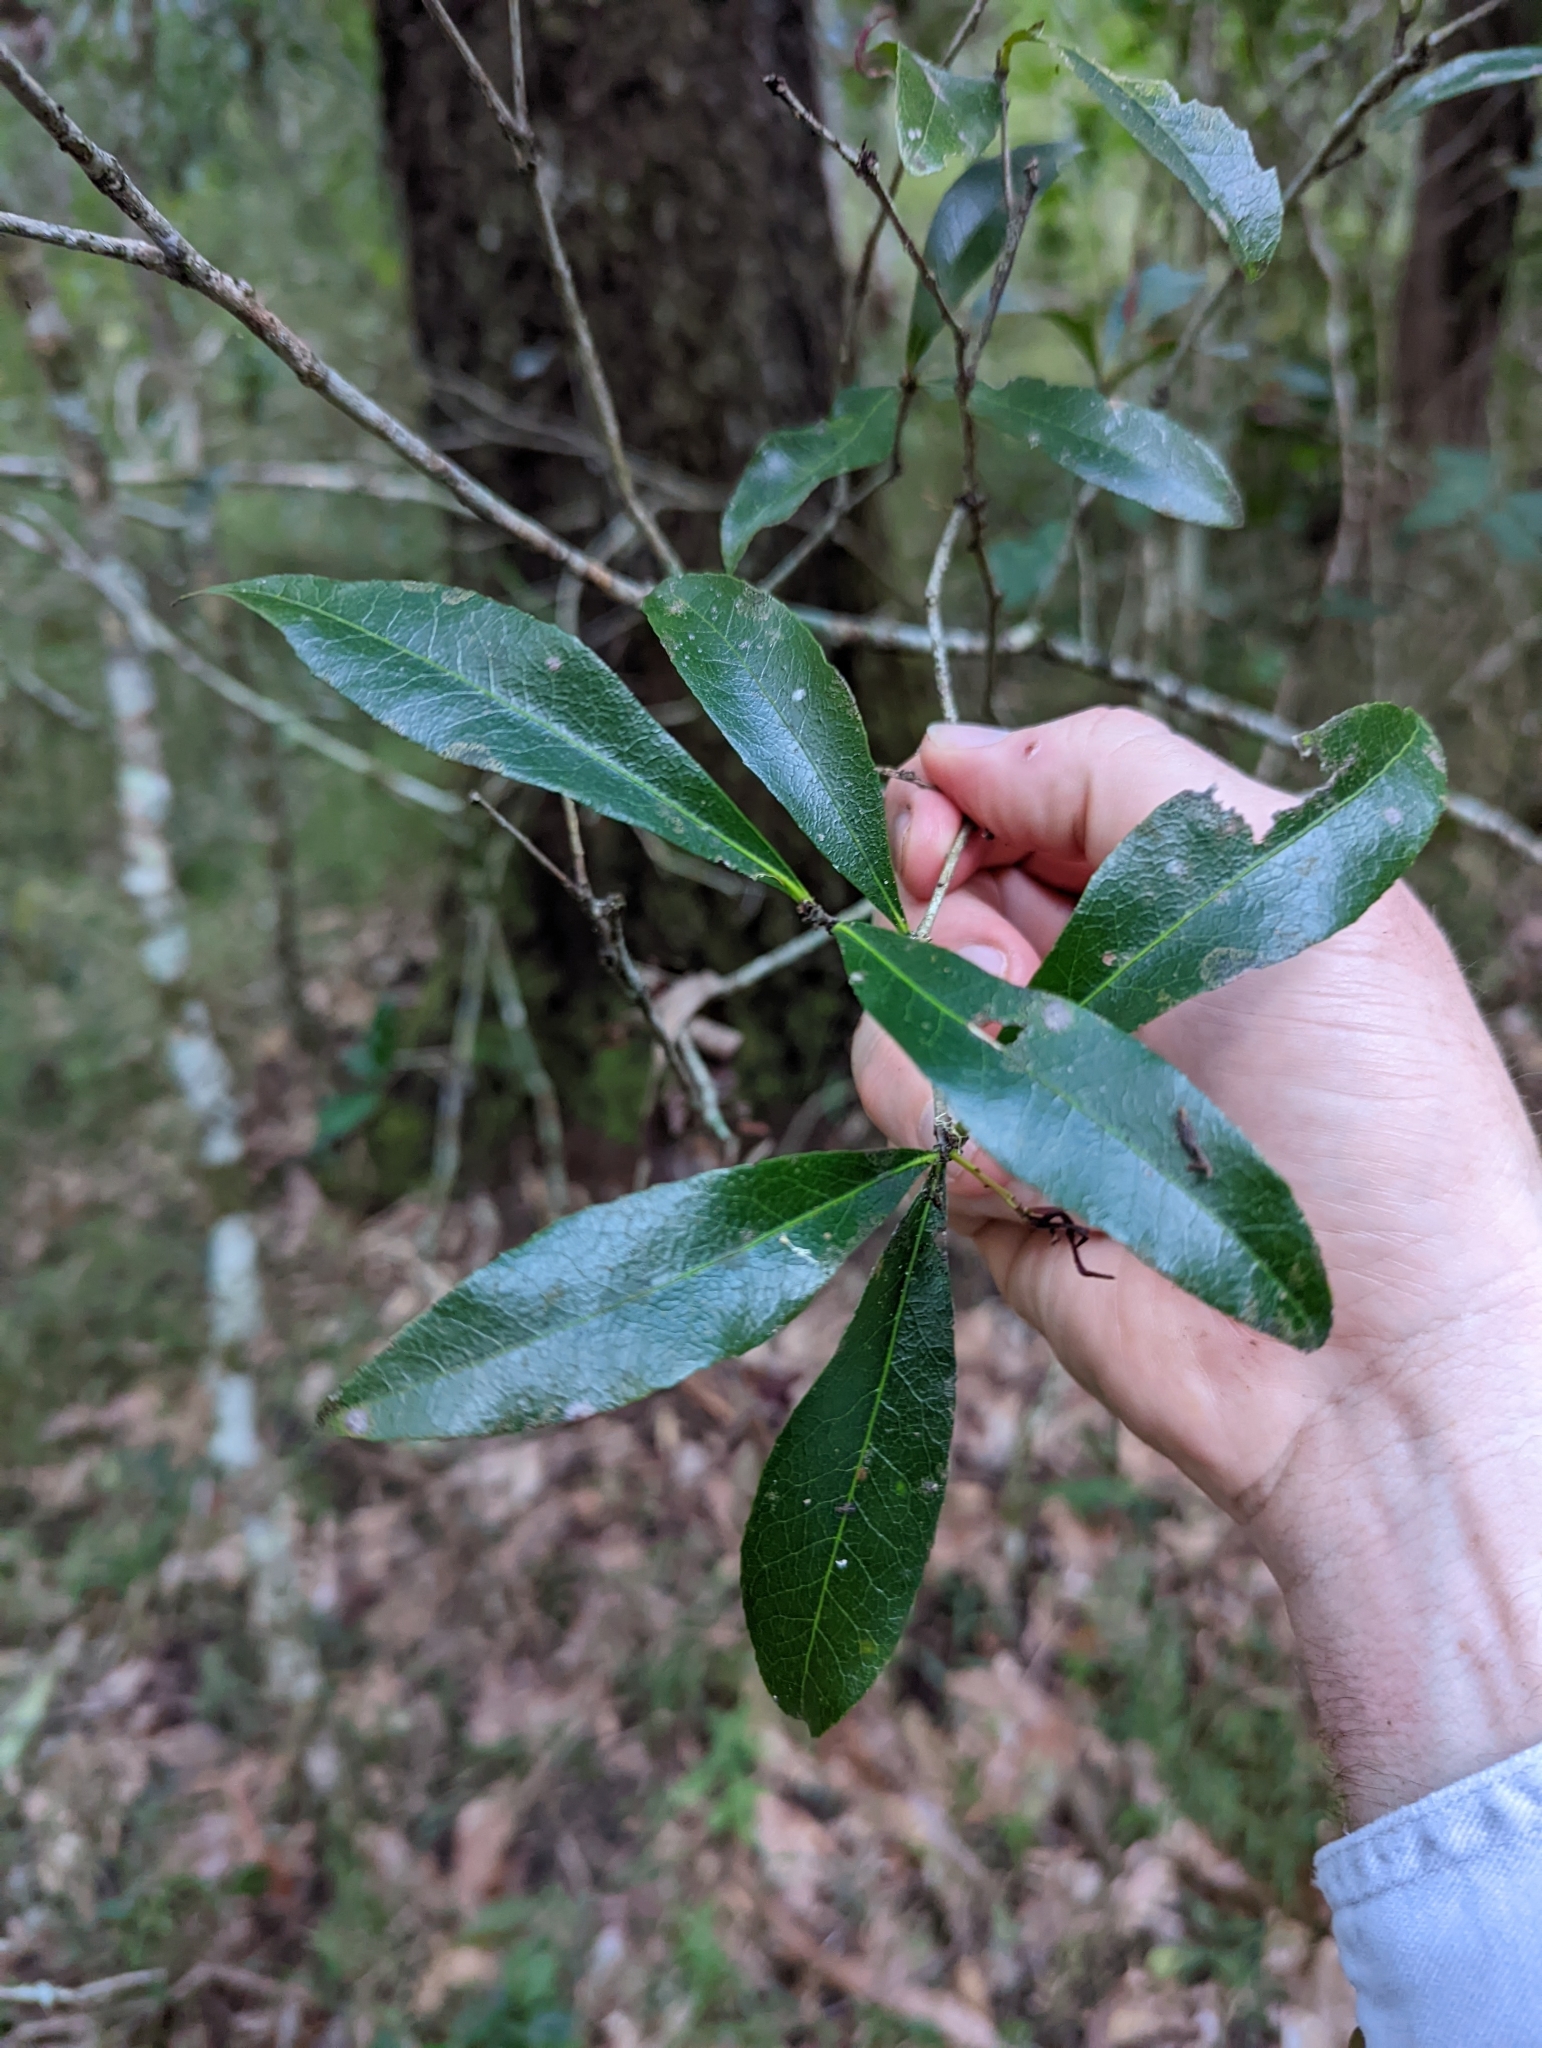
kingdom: Plantae
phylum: Tracheophyta
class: Magnoliopsida
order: Celastrales
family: Celastraceae
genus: Denhamia
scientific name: Denhamia celastroides
